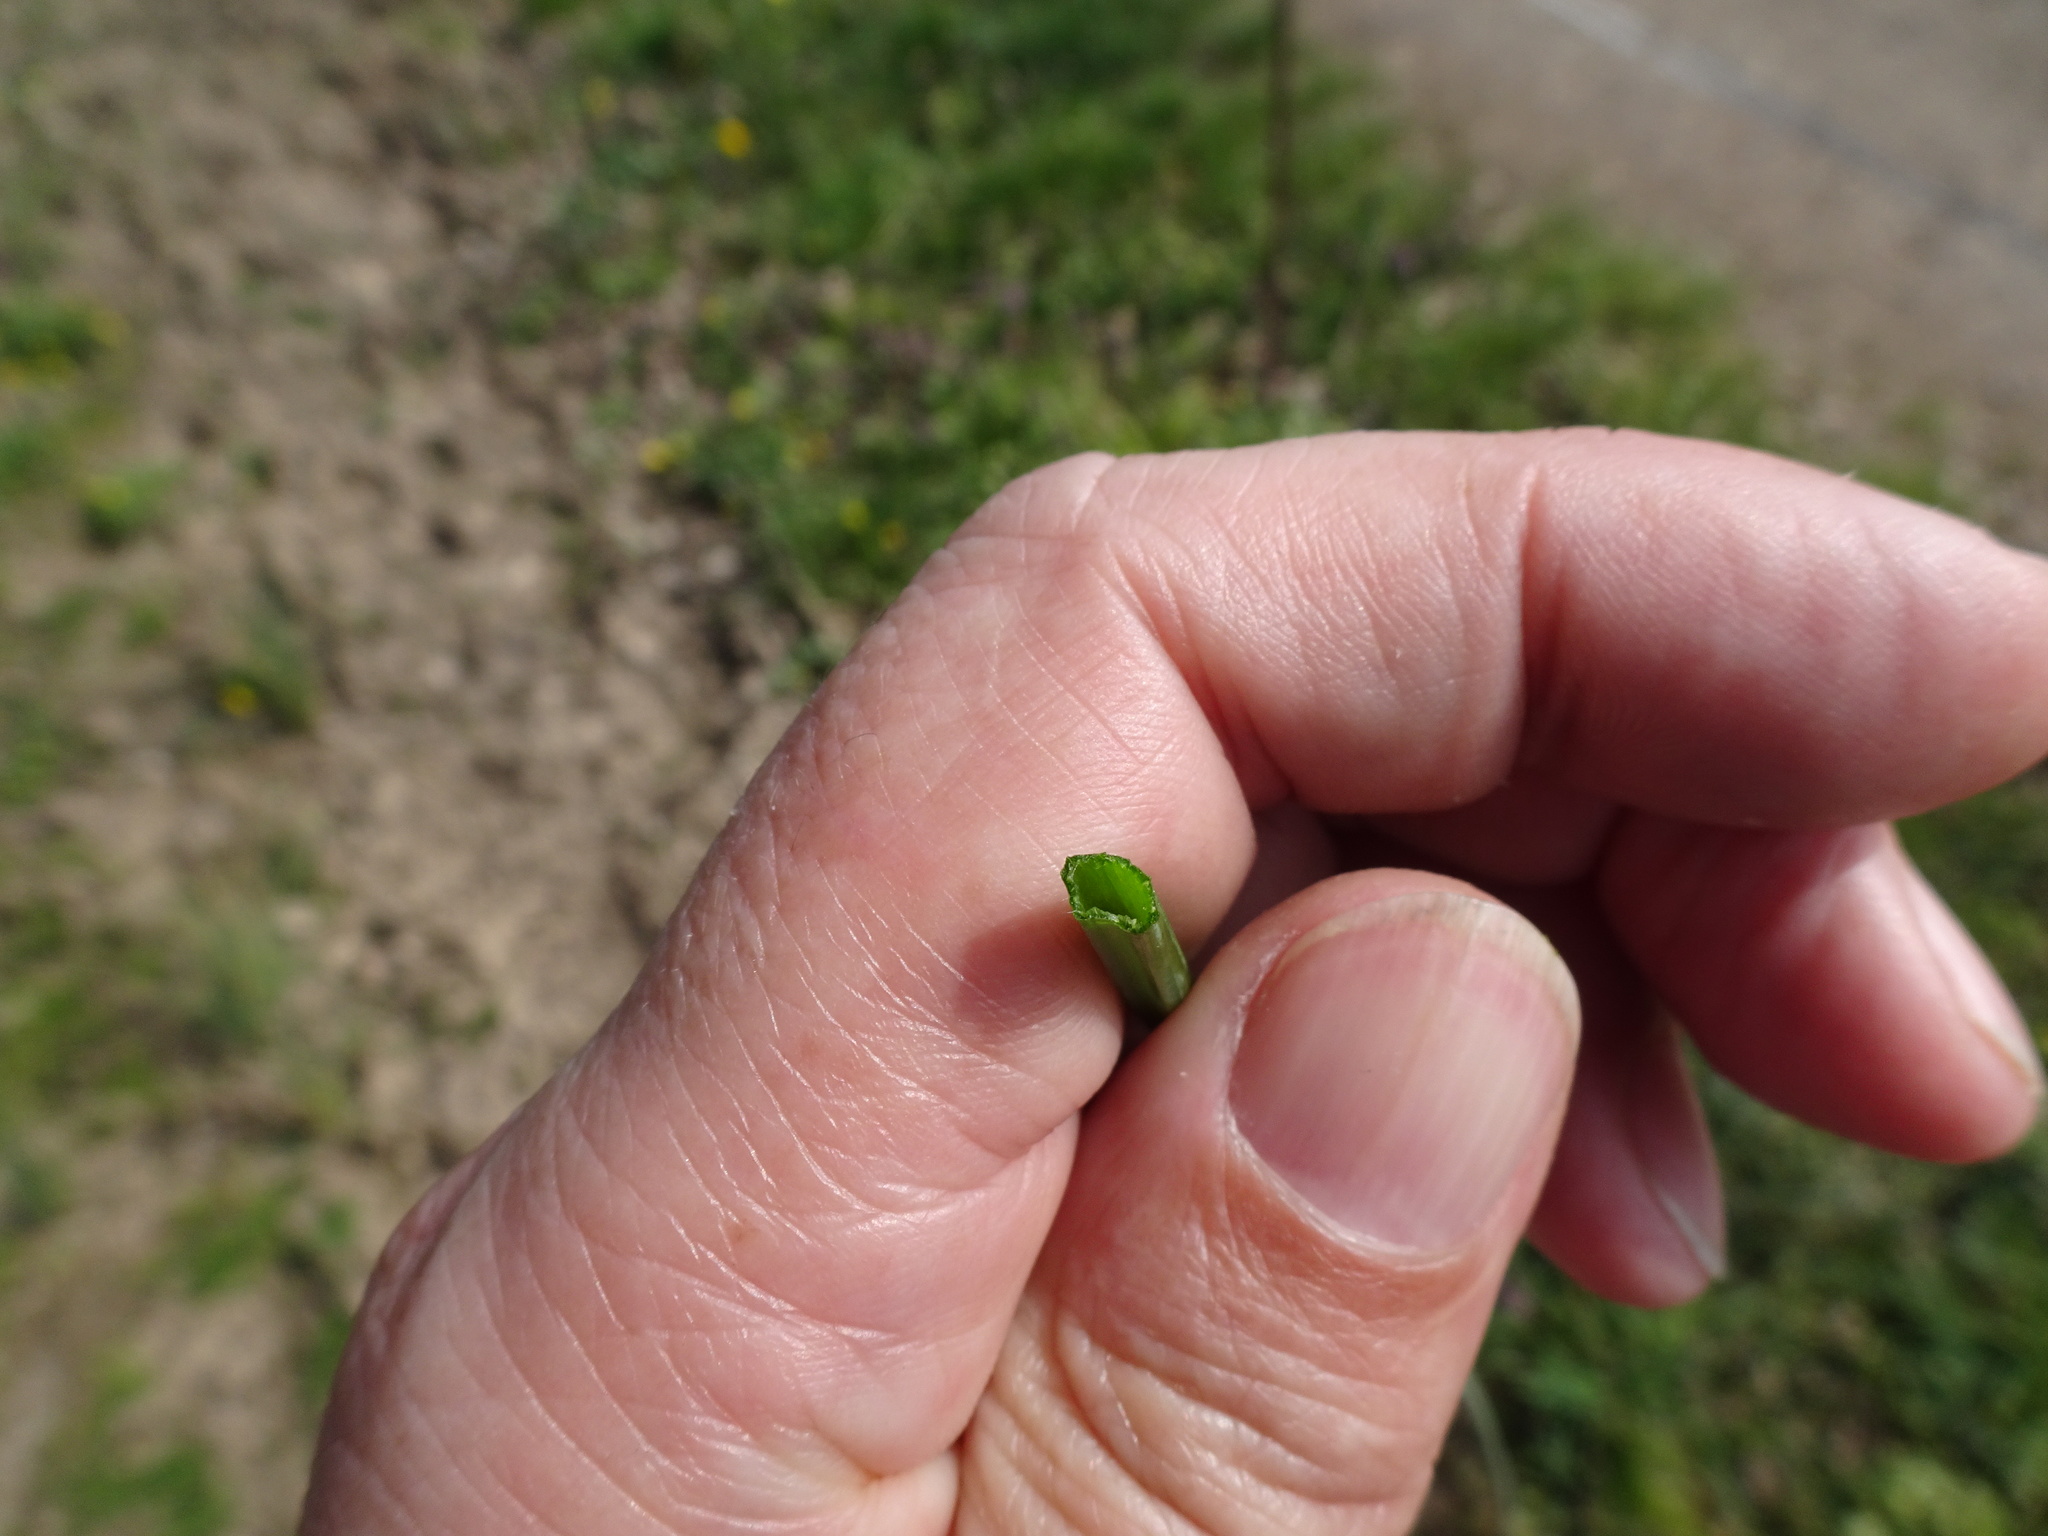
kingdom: Plantae
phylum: Tracheophyta
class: Liliopsida
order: Asparagales
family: Amaryllidaceae
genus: Allium
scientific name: Allium vineale
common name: Crow garlic
